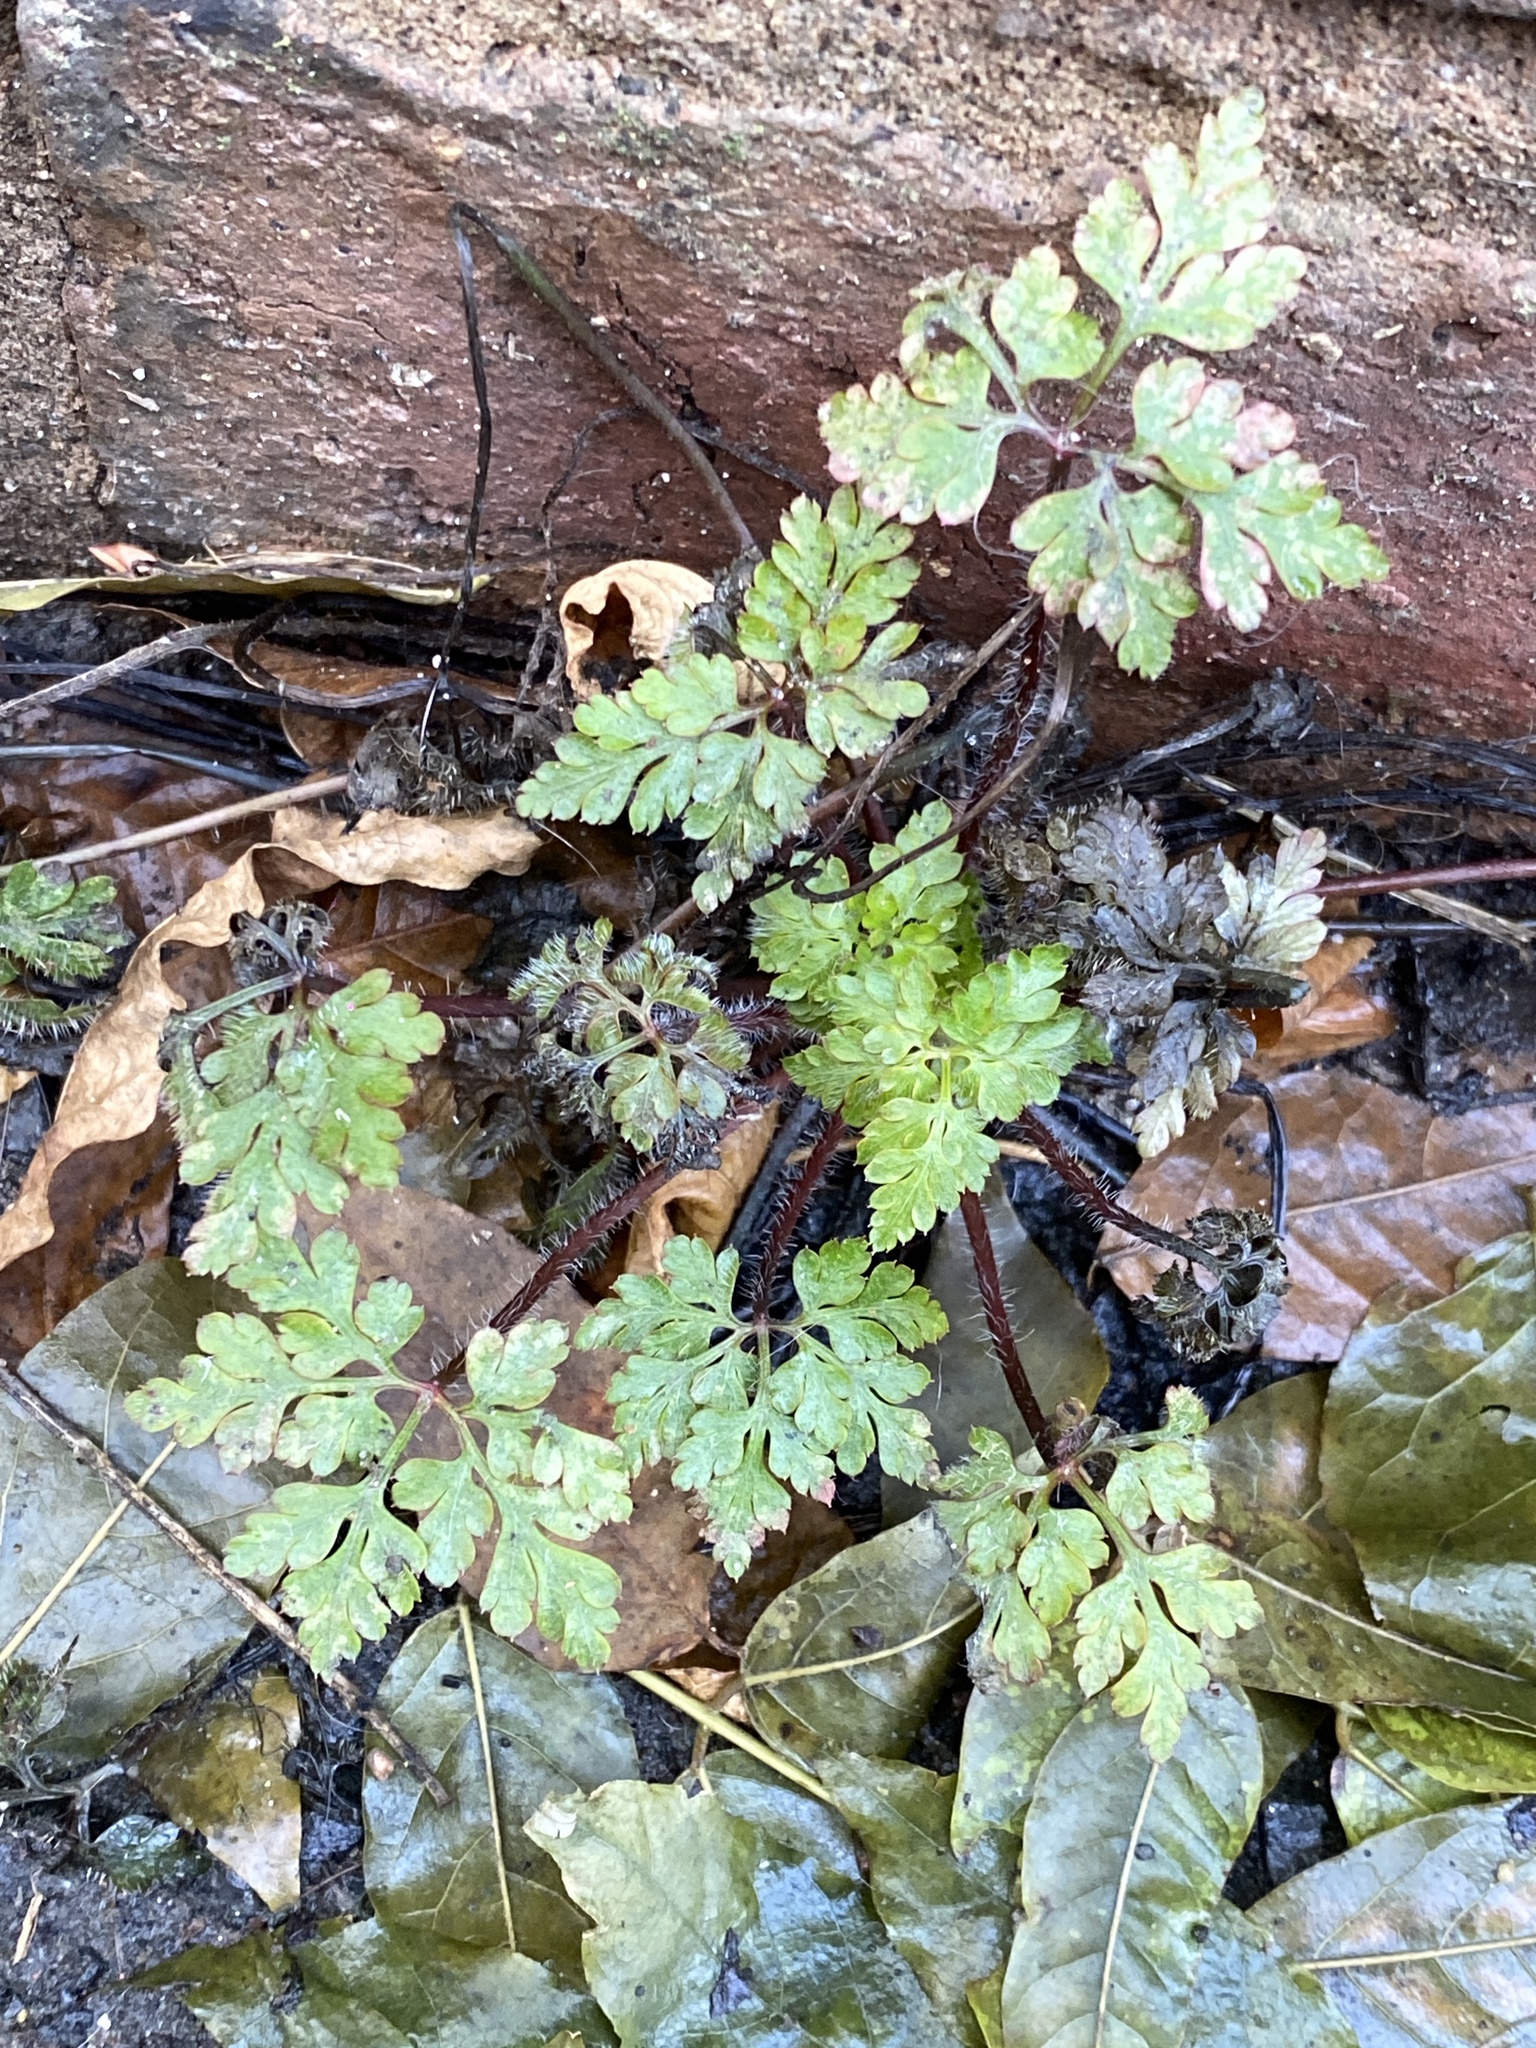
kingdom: Plantae
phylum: Tracheophyta
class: Magnoliopsida
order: Geraniales
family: Geraniaceae
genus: Geranium
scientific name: Geranium robertianum
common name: Herb-robert
